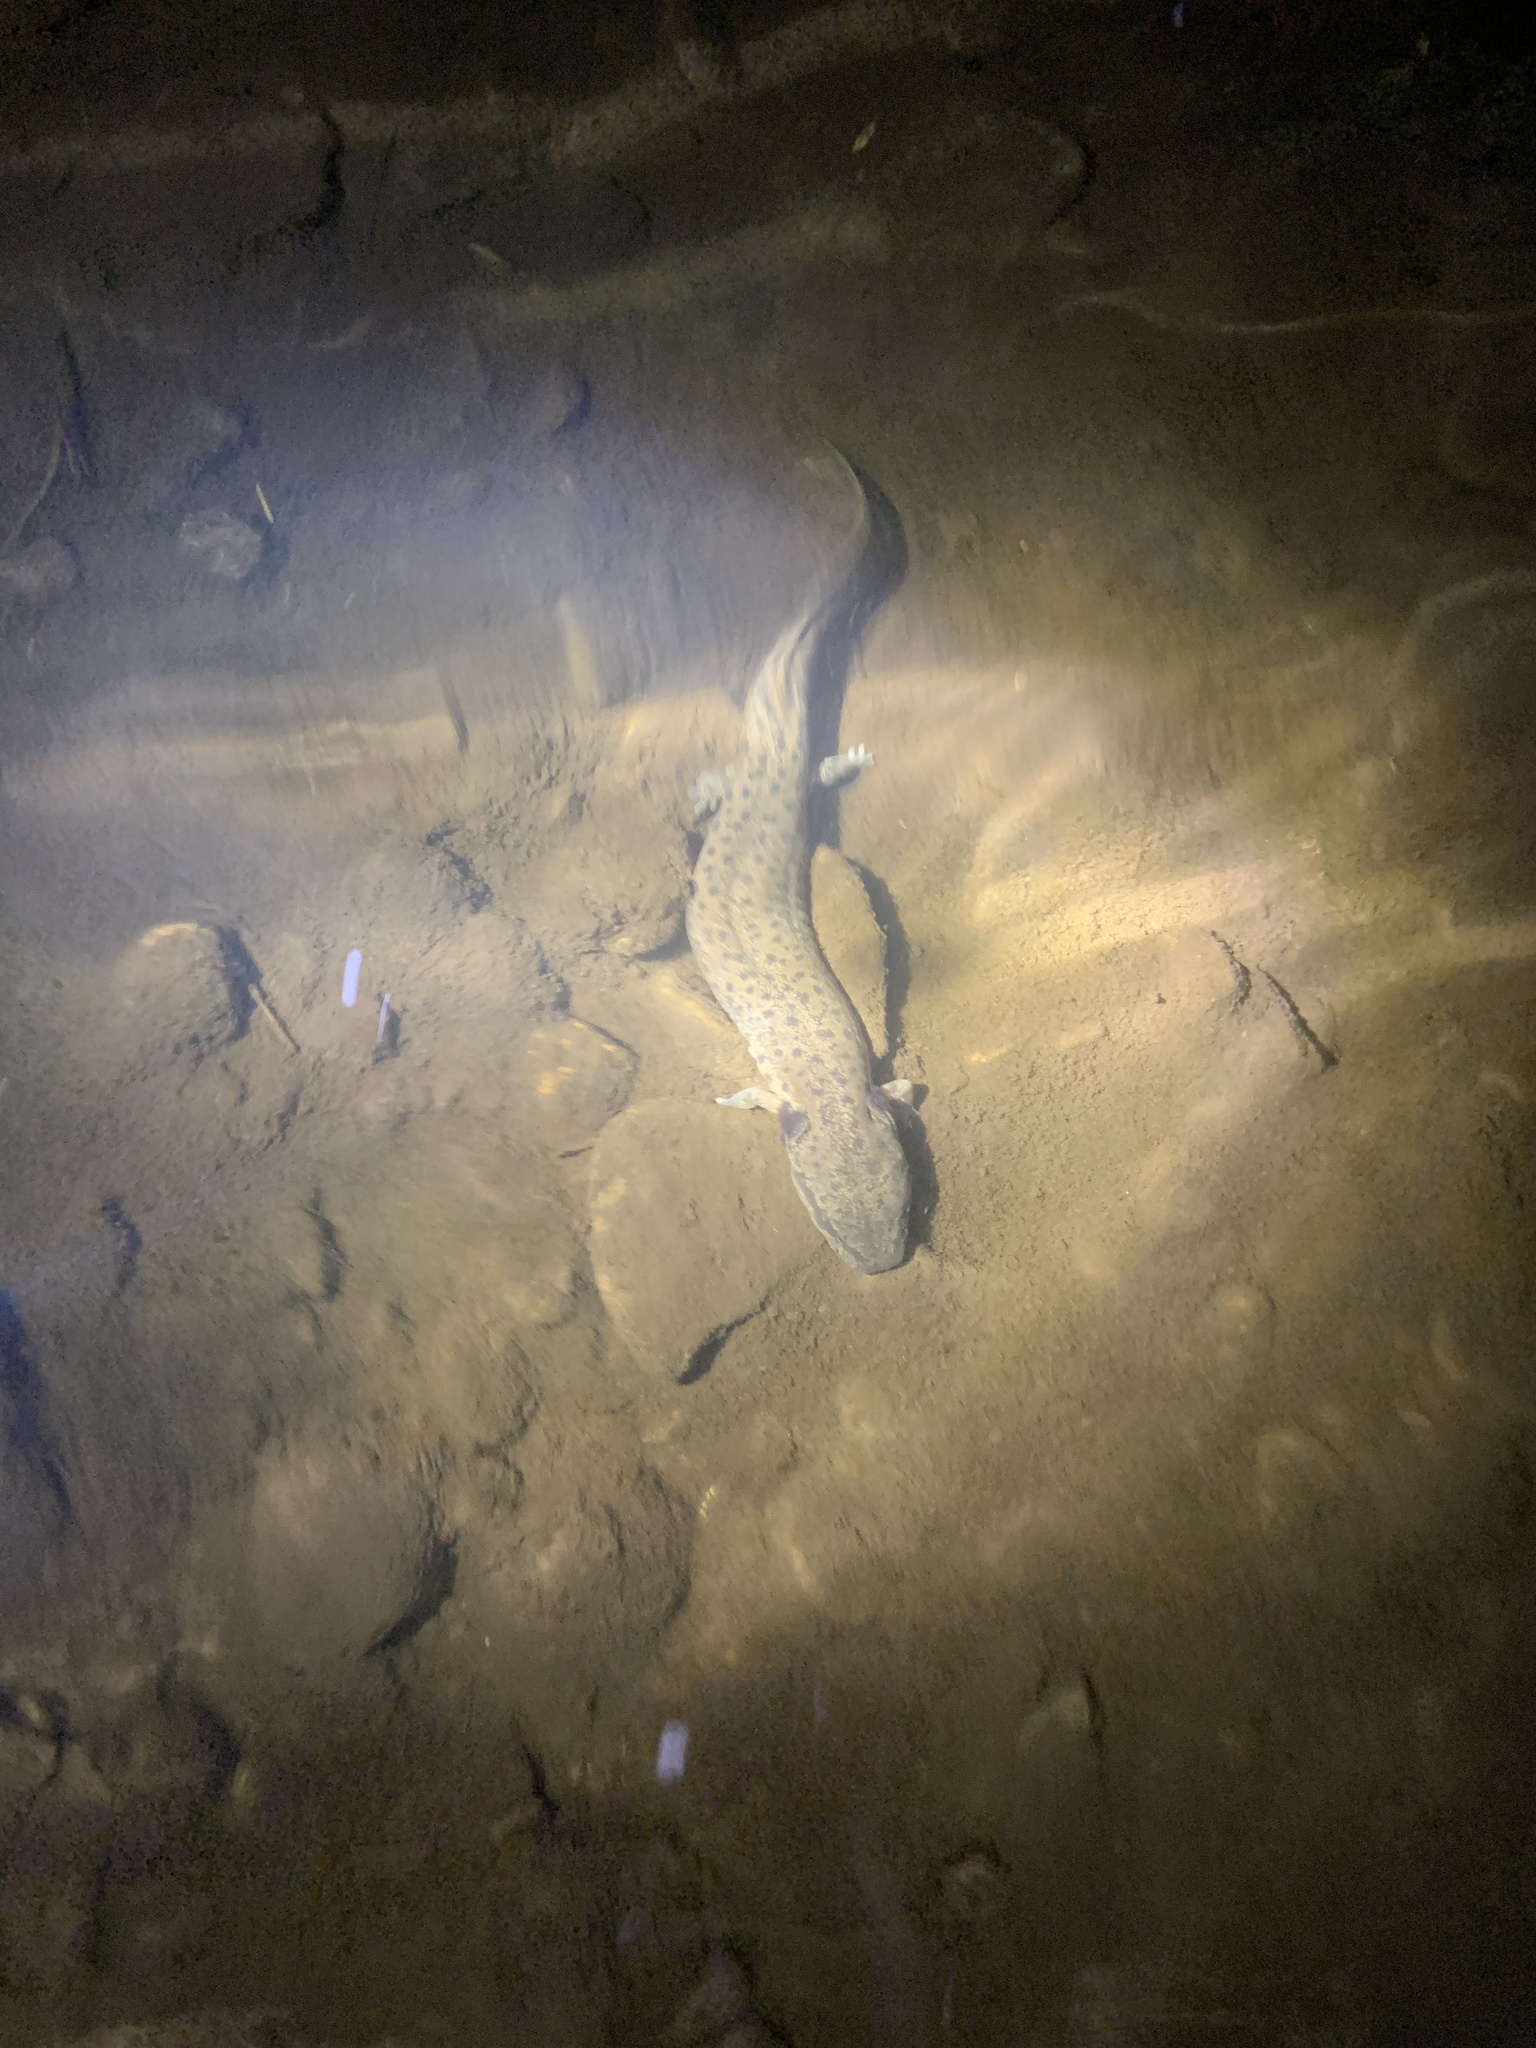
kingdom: Animalia
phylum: Chordata
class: Amphibia
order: Caudata
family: Proteidae
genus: Necturus
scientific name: Necturus maculosus
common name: Mudpuppy
